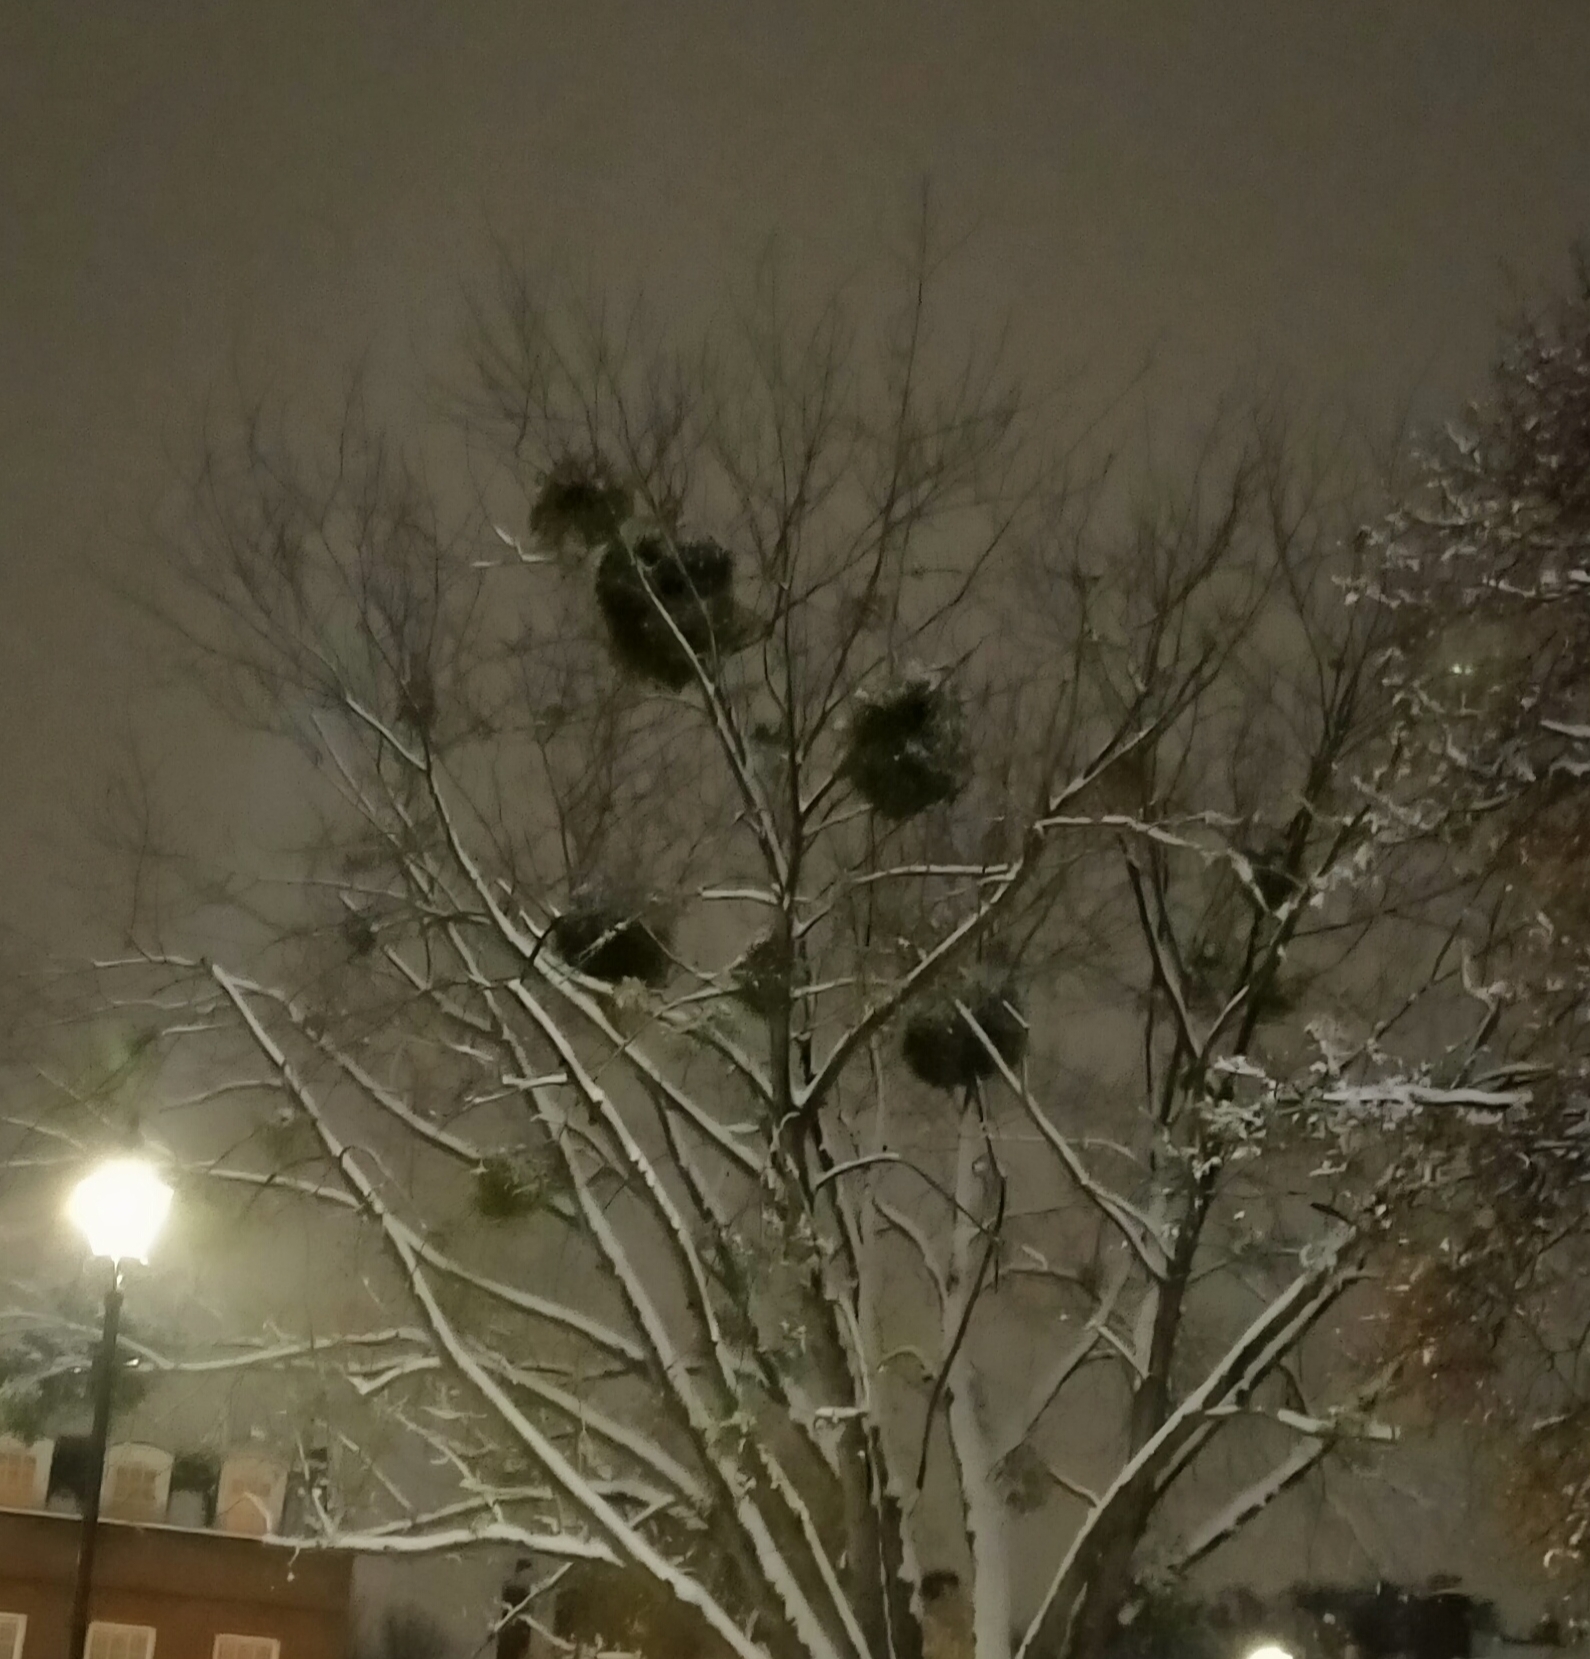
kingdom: Plantae
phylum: Tracheophyta
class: Magnoliopsida
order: Santalales
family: Viscaceae
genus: Viscum
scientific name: Viscum album
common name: Mistletoe
